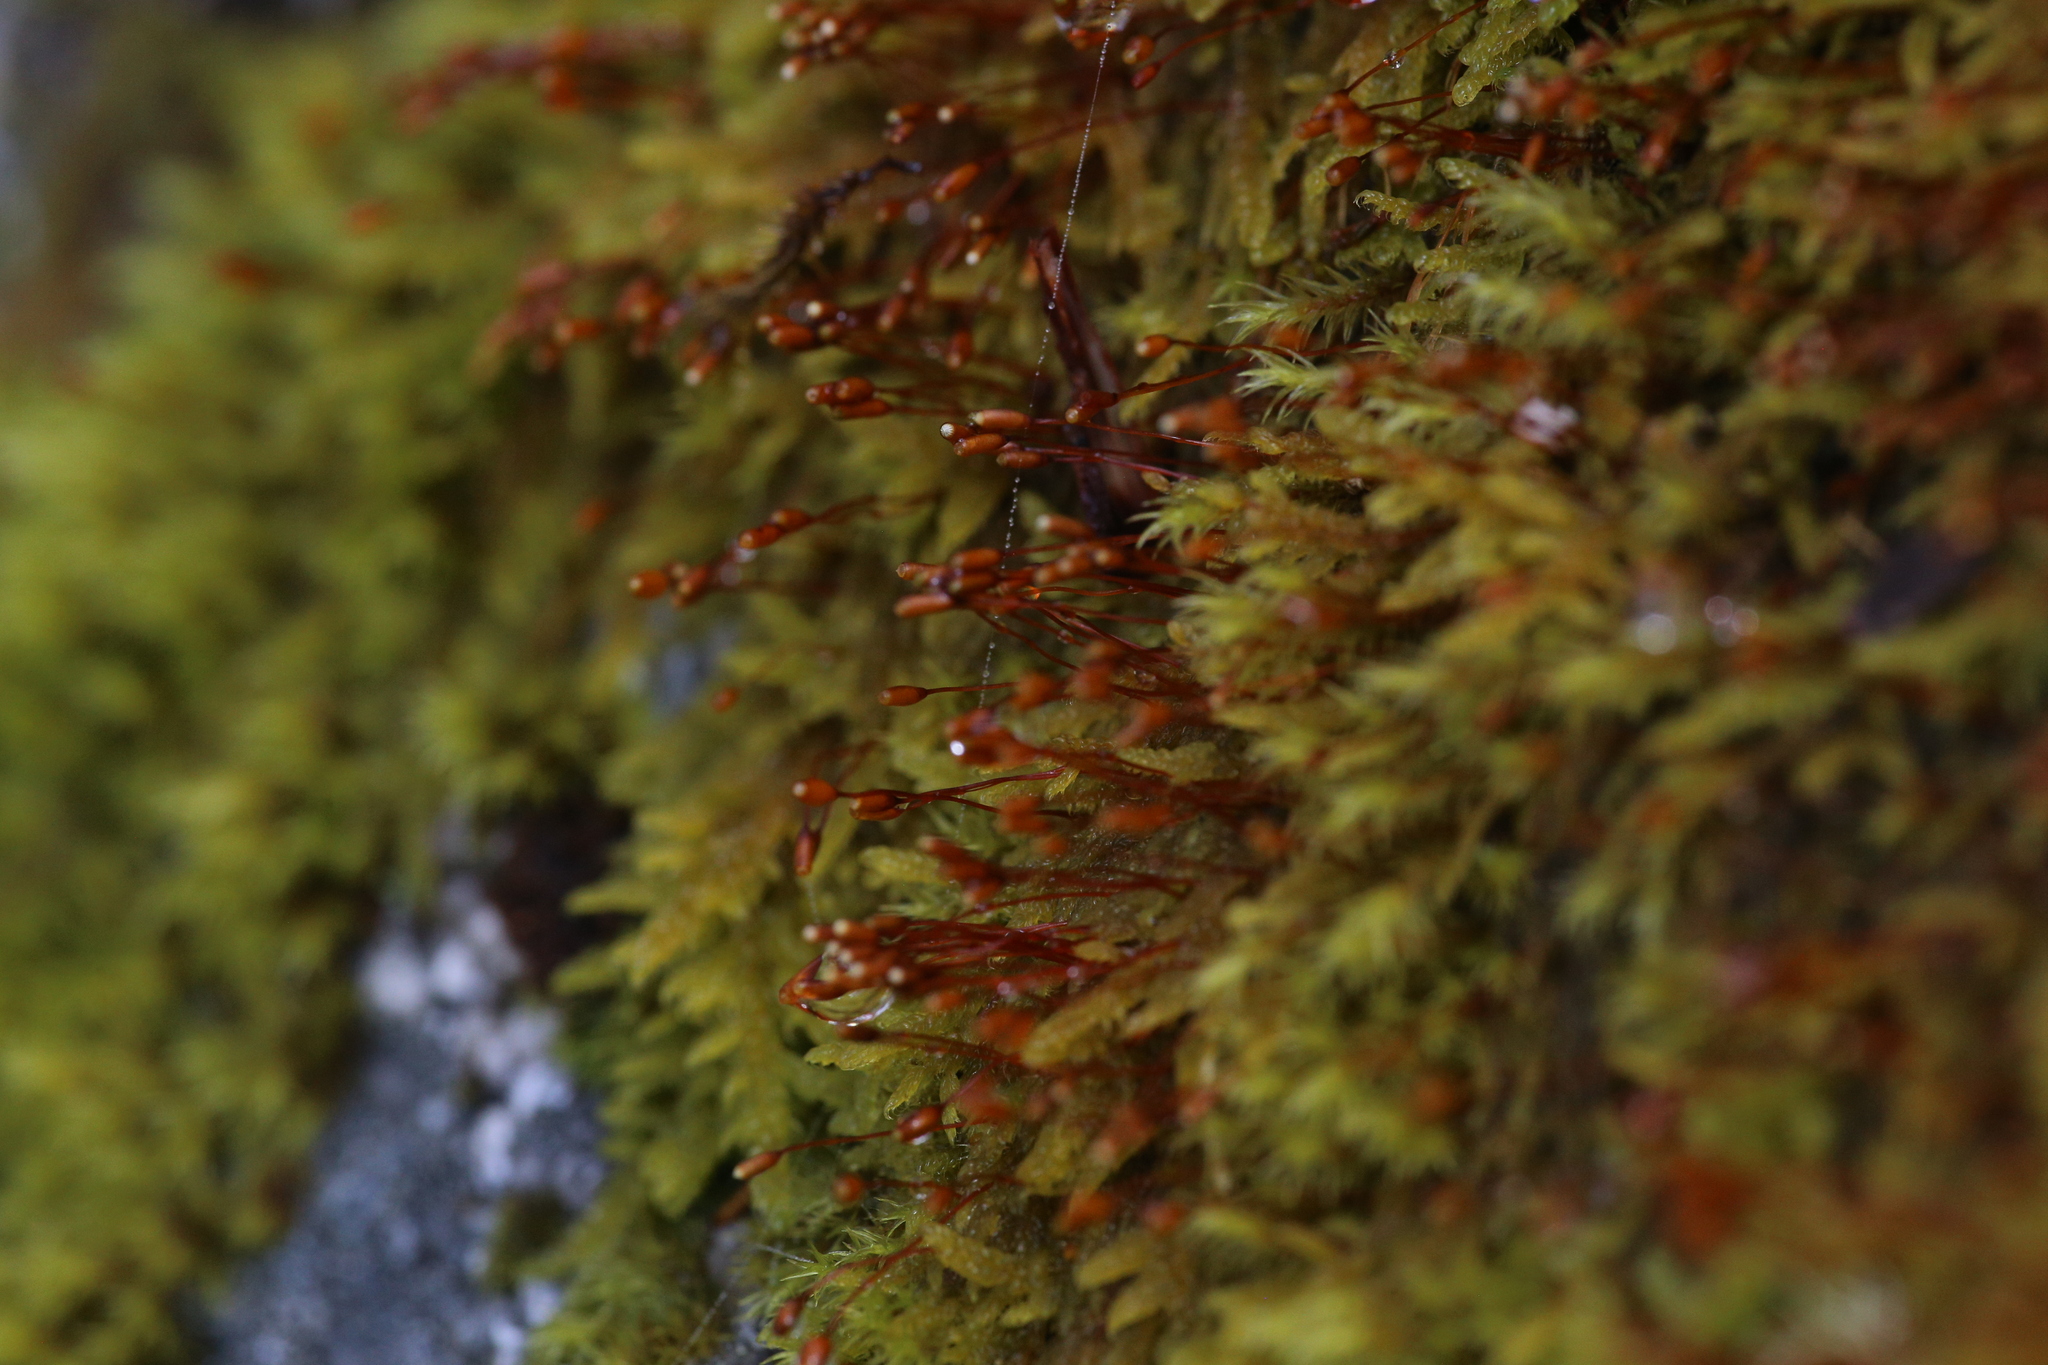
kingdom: Plantae
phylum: Bryophyta
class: Bryopsida
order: Grimmiales
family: Grimmiaceae
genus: Bucklandiella
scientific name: Bucklandiella crispula
